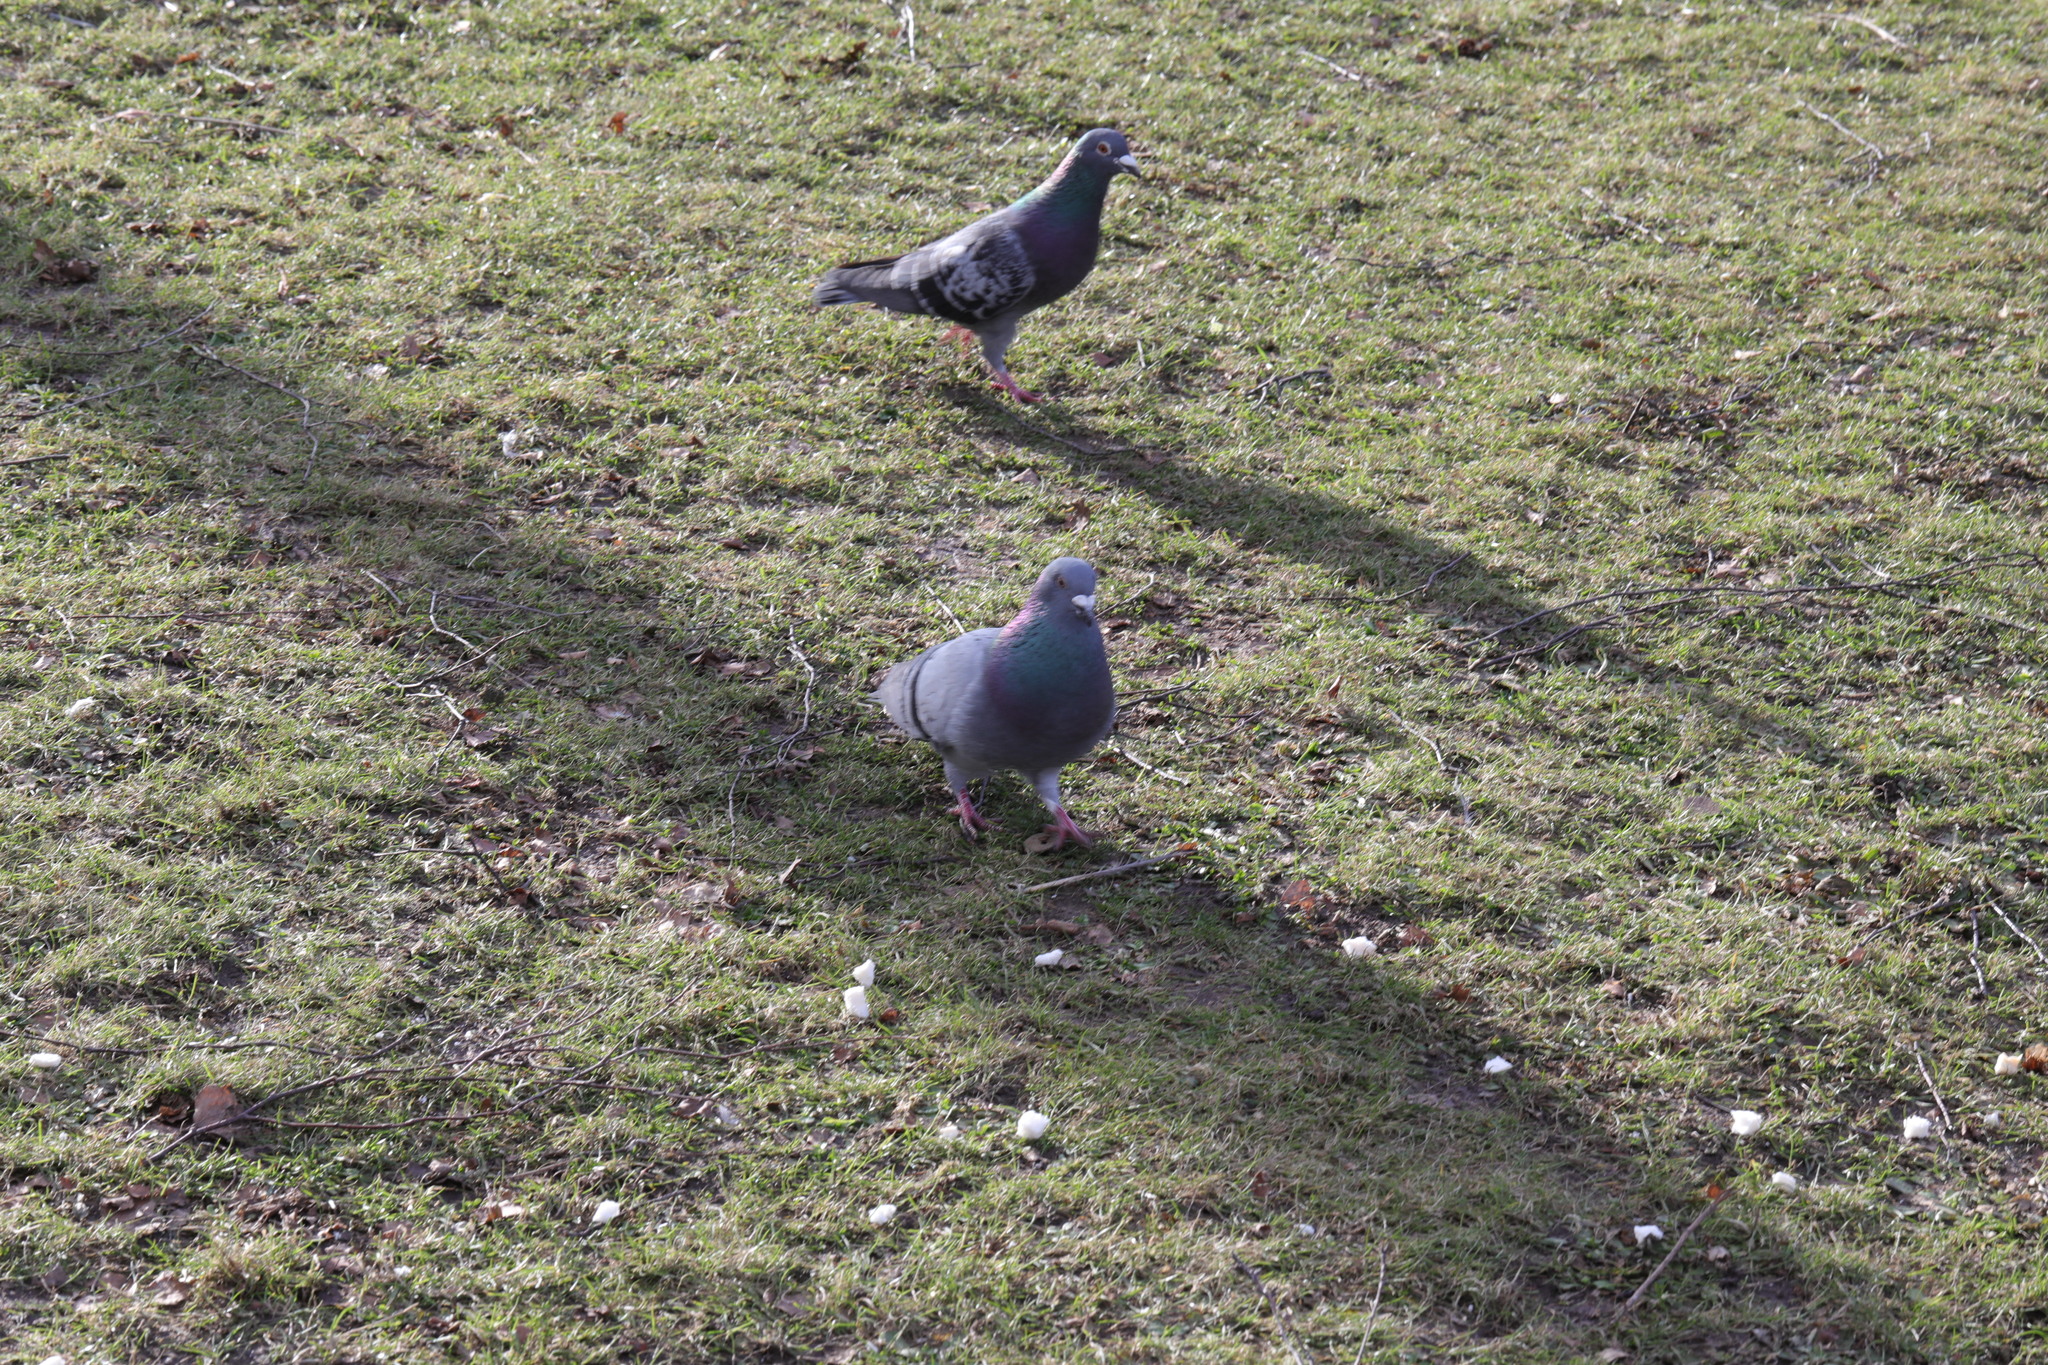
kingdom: Animalia
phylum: Chordata
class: Aves
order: Columbiformes
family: Columbidae
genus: Columba
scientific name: Columba livia
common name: Rock pigeon
